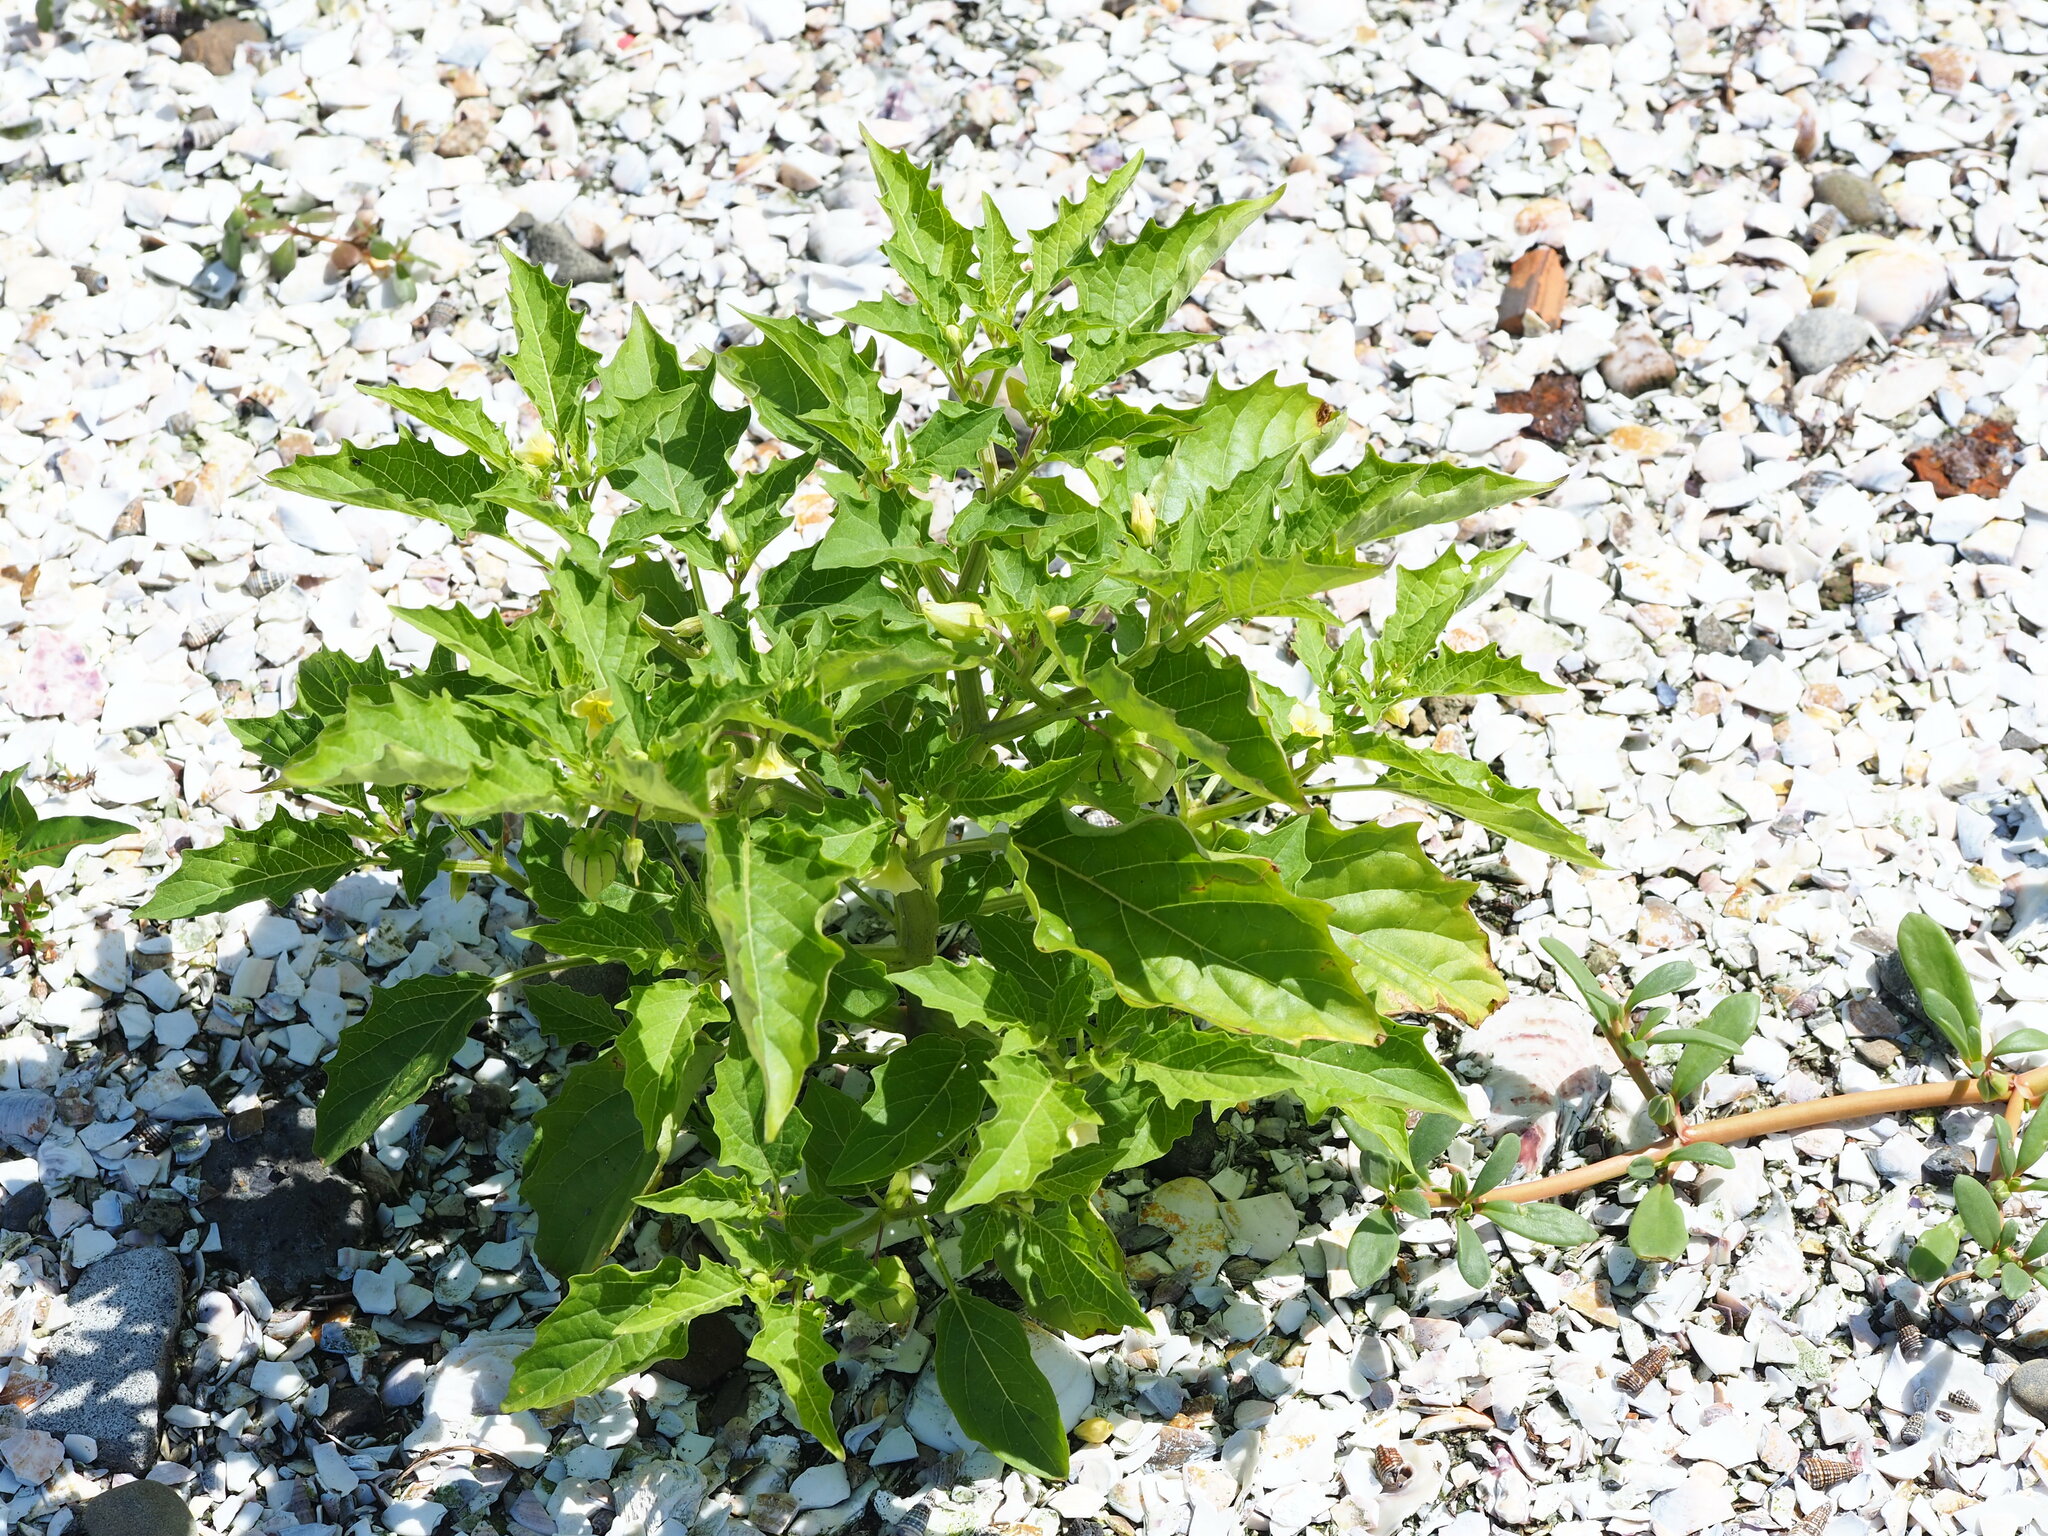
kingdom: Plantae
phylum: Tracheophyta
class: Magnoliopsida
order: Solanales
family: Solanaceae
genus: Physalis
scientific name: Physalis angulata
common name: Angular winter-cherry
